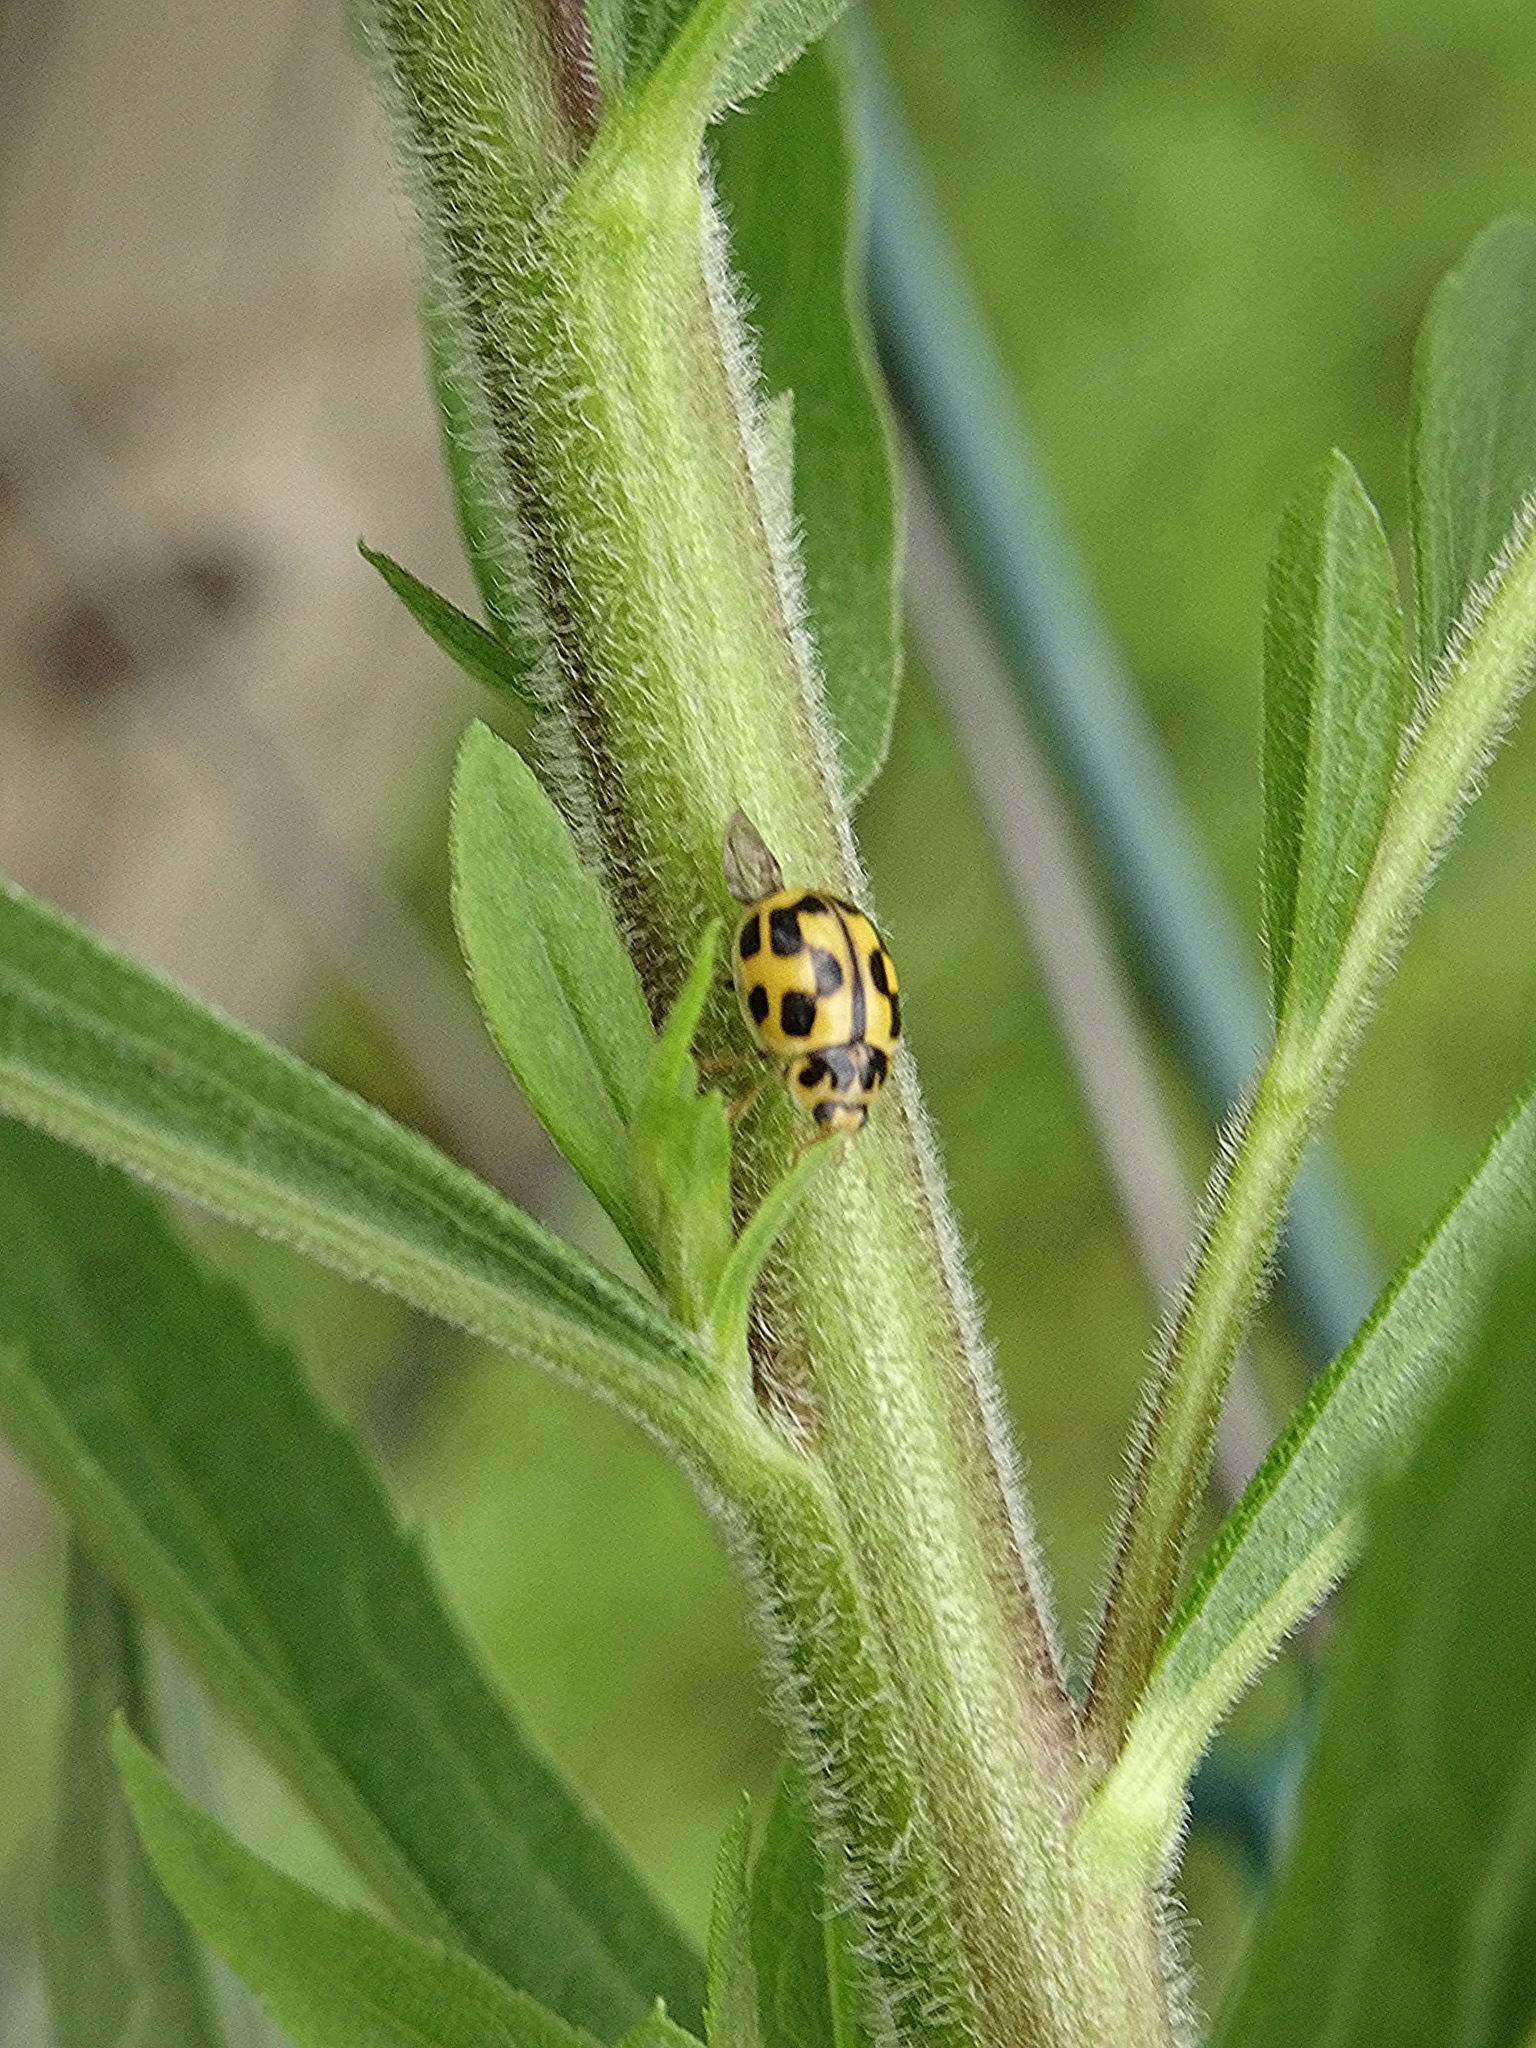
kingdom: Animalia
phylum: Arthropoda
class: Insecta
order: Coleoptera
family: Coccinellidae
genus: Propylaea
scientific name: Propylaea quatuordecimpunctata
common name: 14-spotted ladybird beetle
